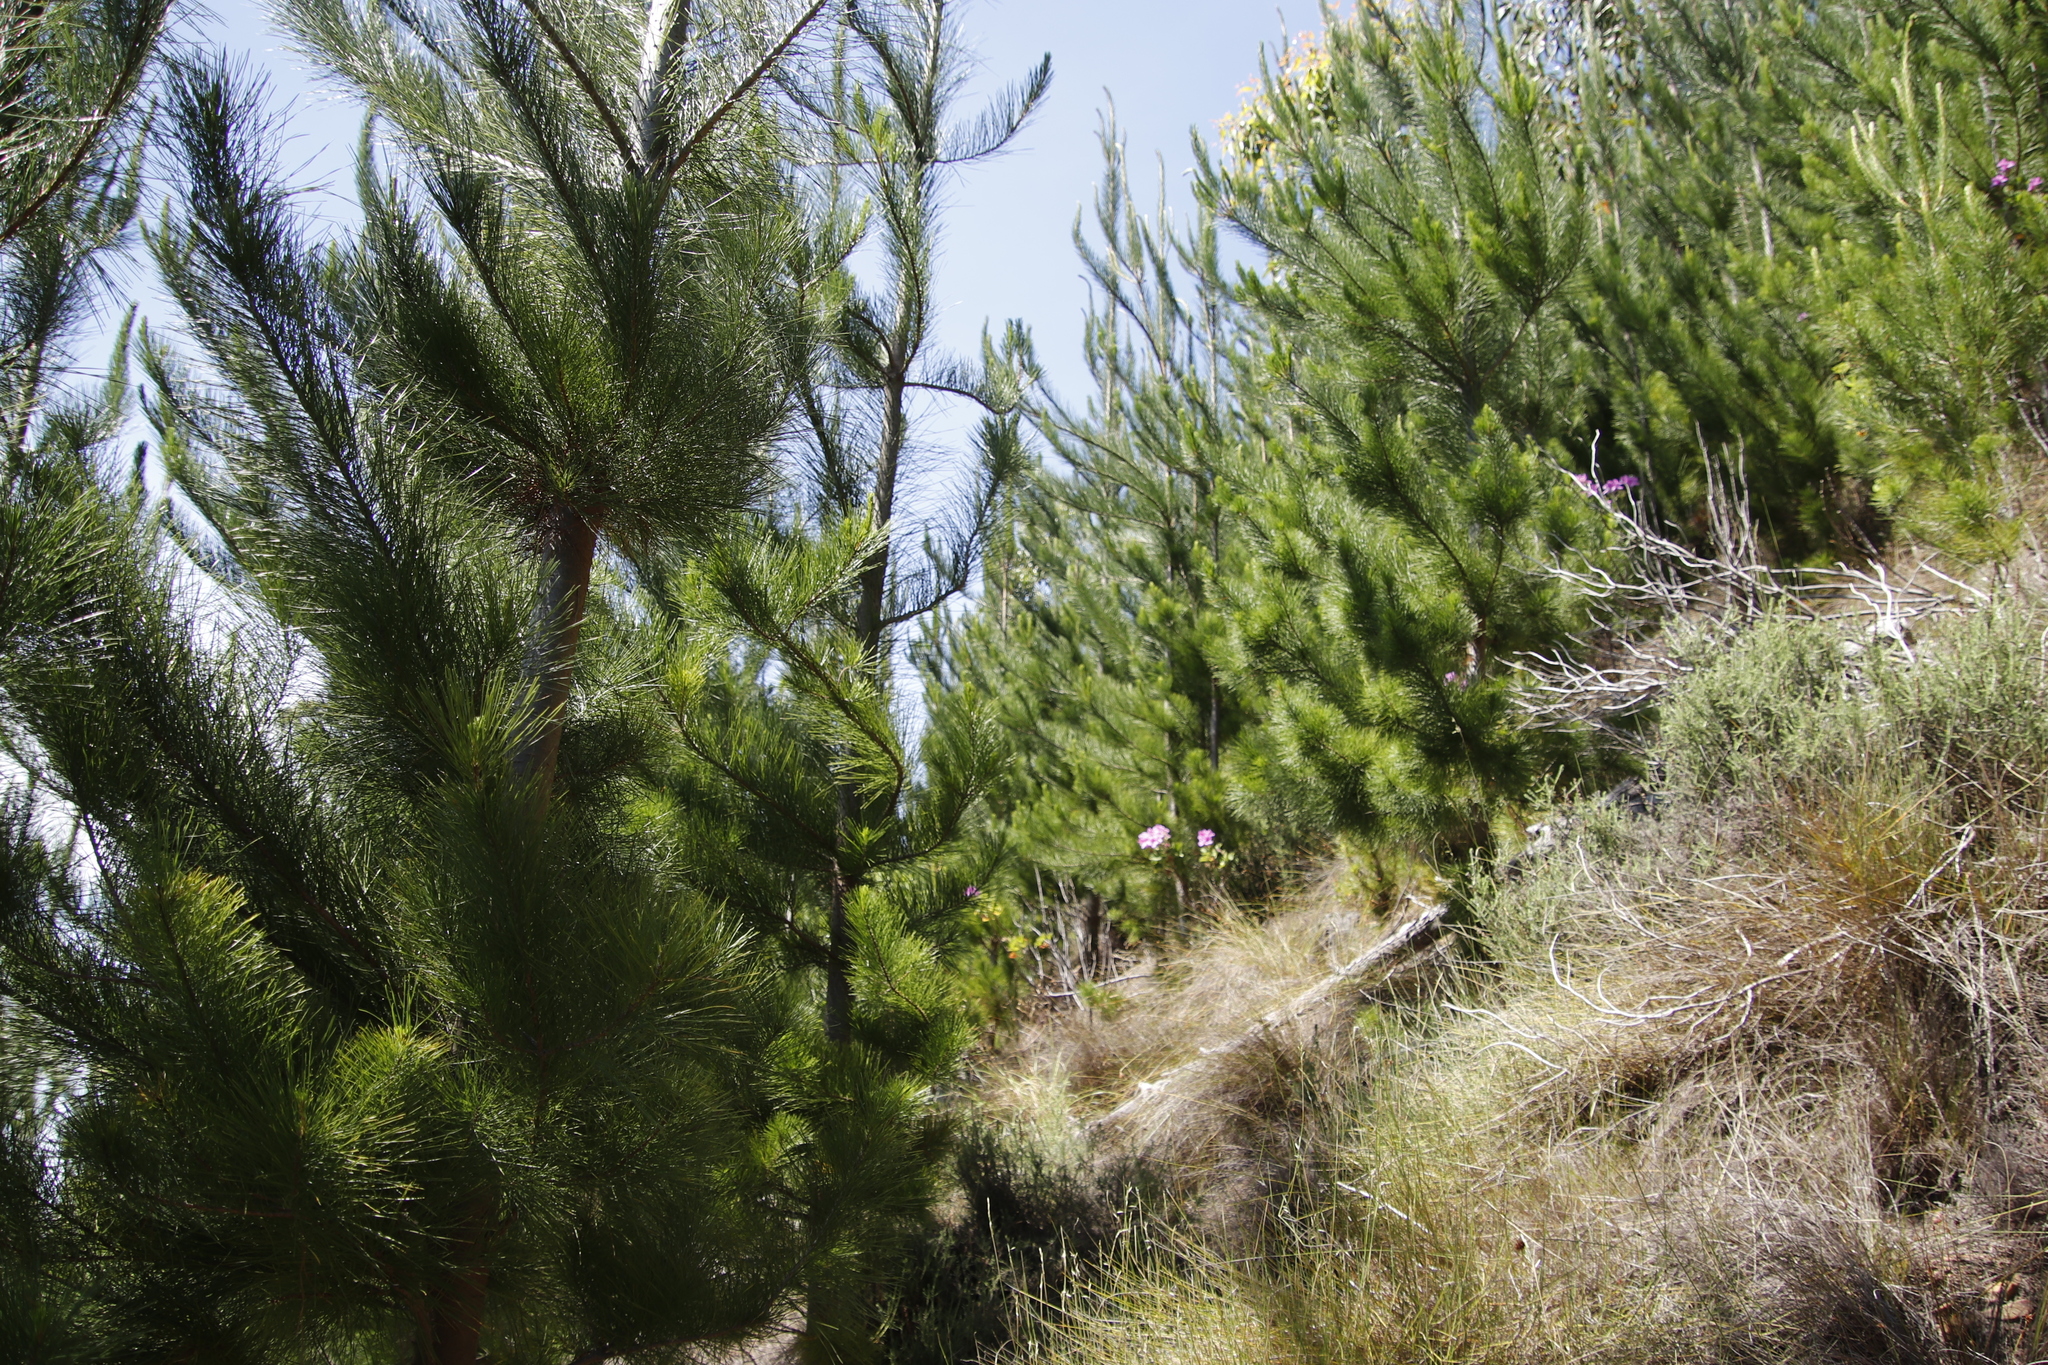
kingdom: Plantae
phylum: Tracheophyta
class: Pinopsida
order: Pinales
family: Pinaceae
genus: Pinus
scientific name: Pinus radiata
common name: Monterey pine
